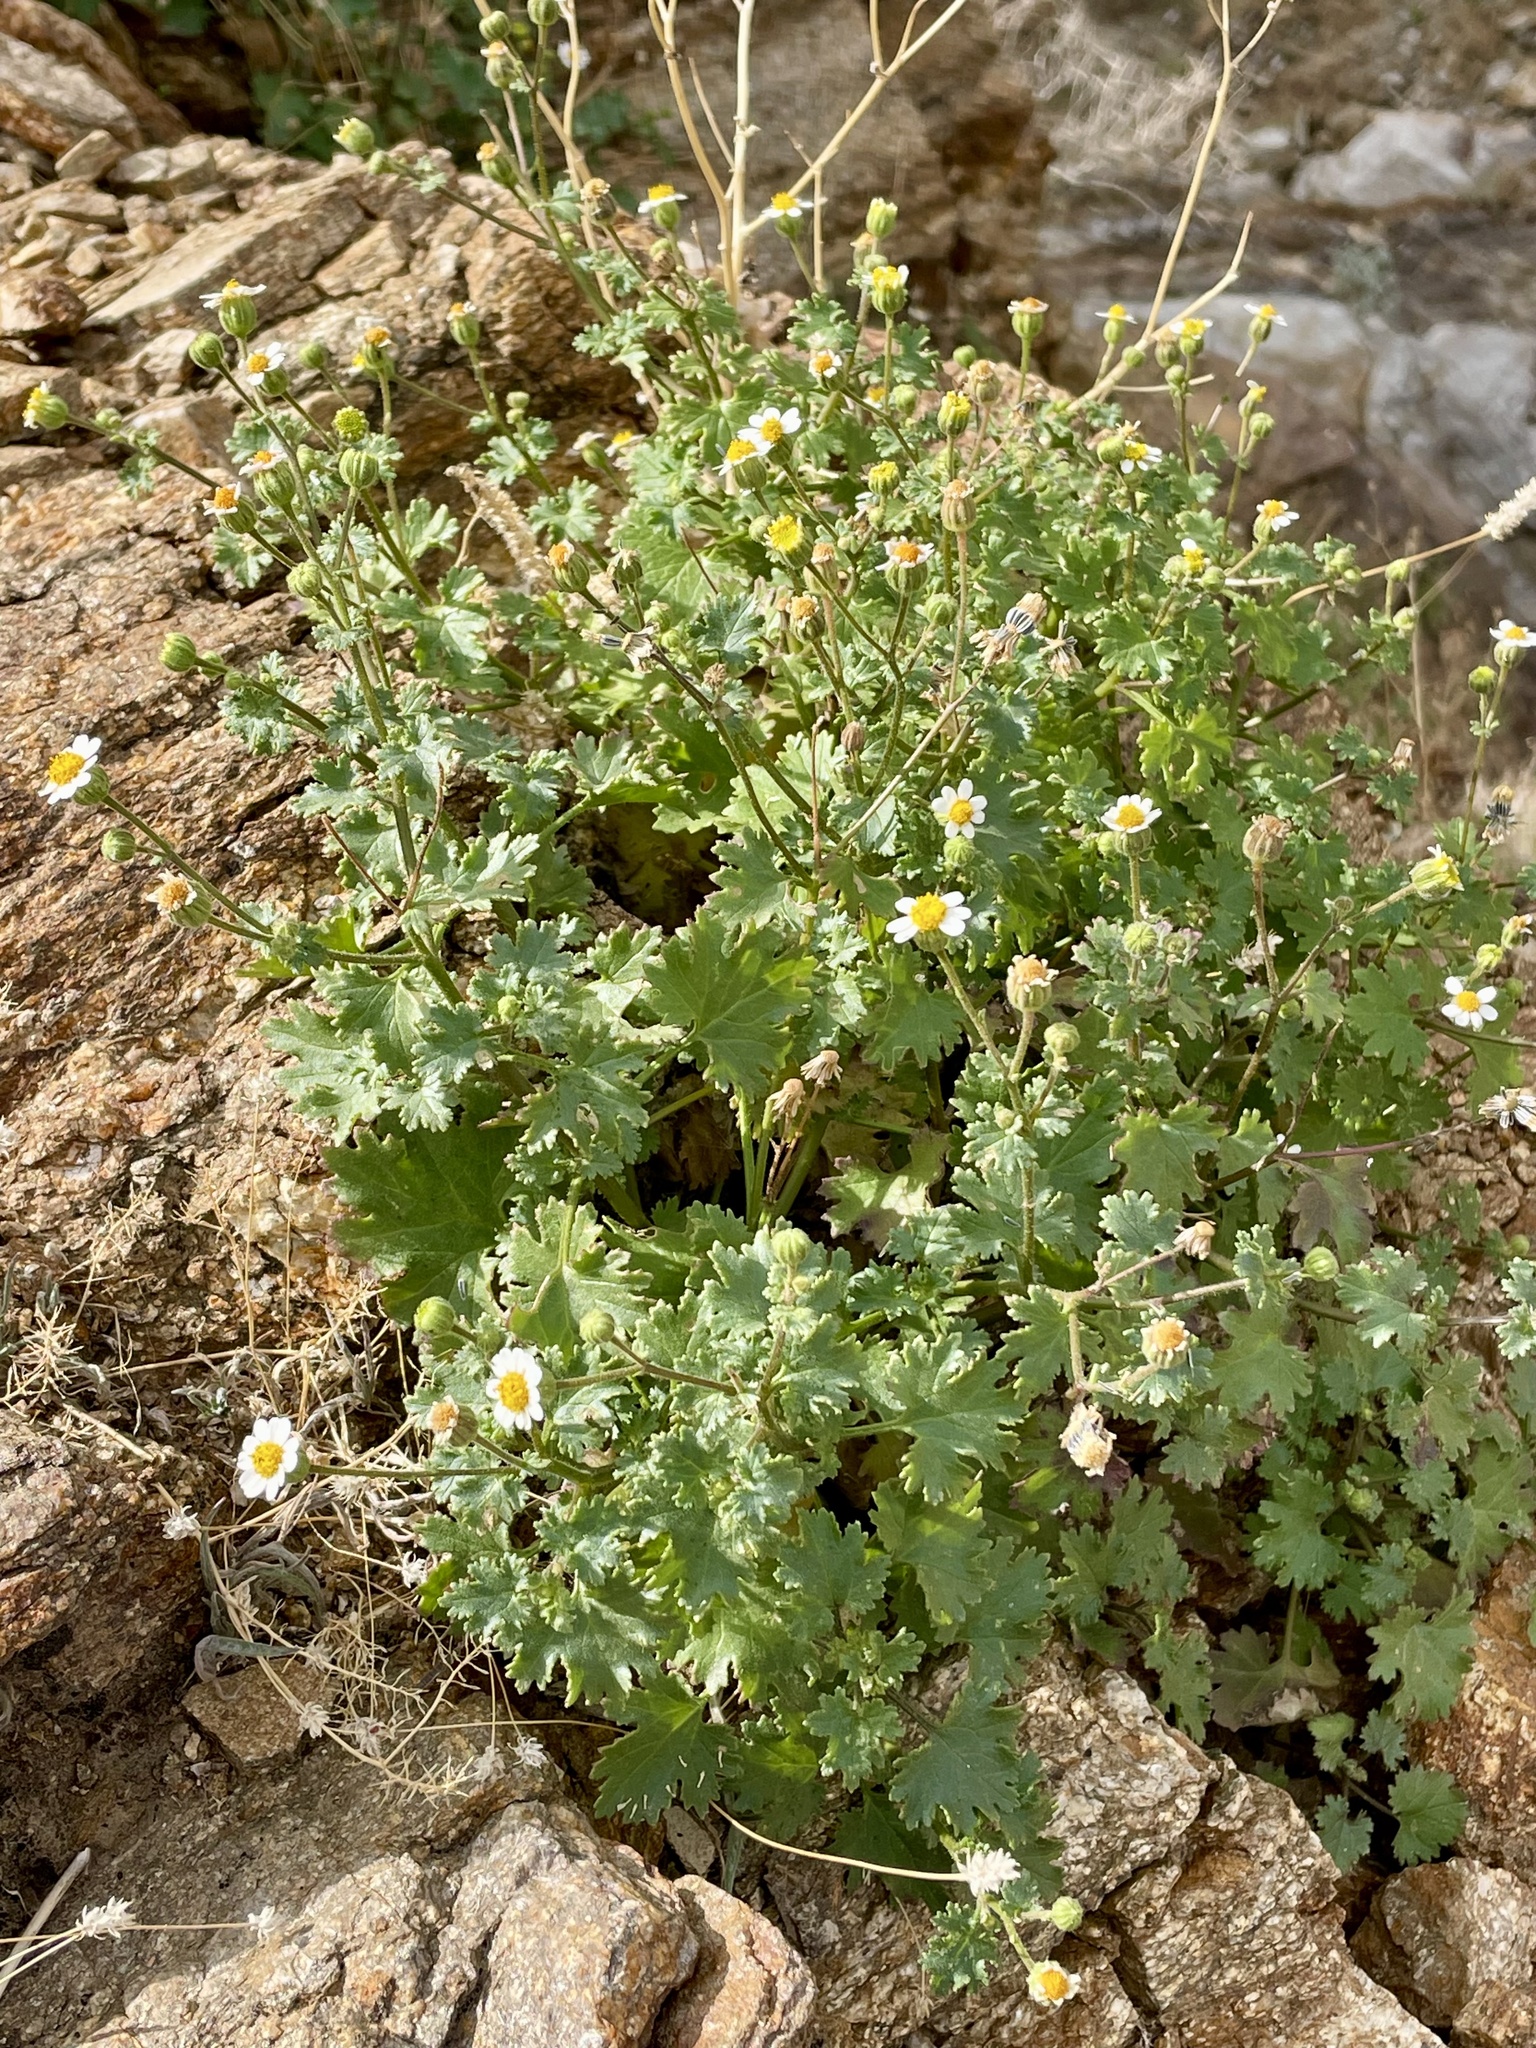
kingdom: Plantae
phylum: Tracheophyta
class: Magnoliopsida
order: Asterales
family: Asteraceae
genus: Laphamia
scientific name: Laphamia emoryi
